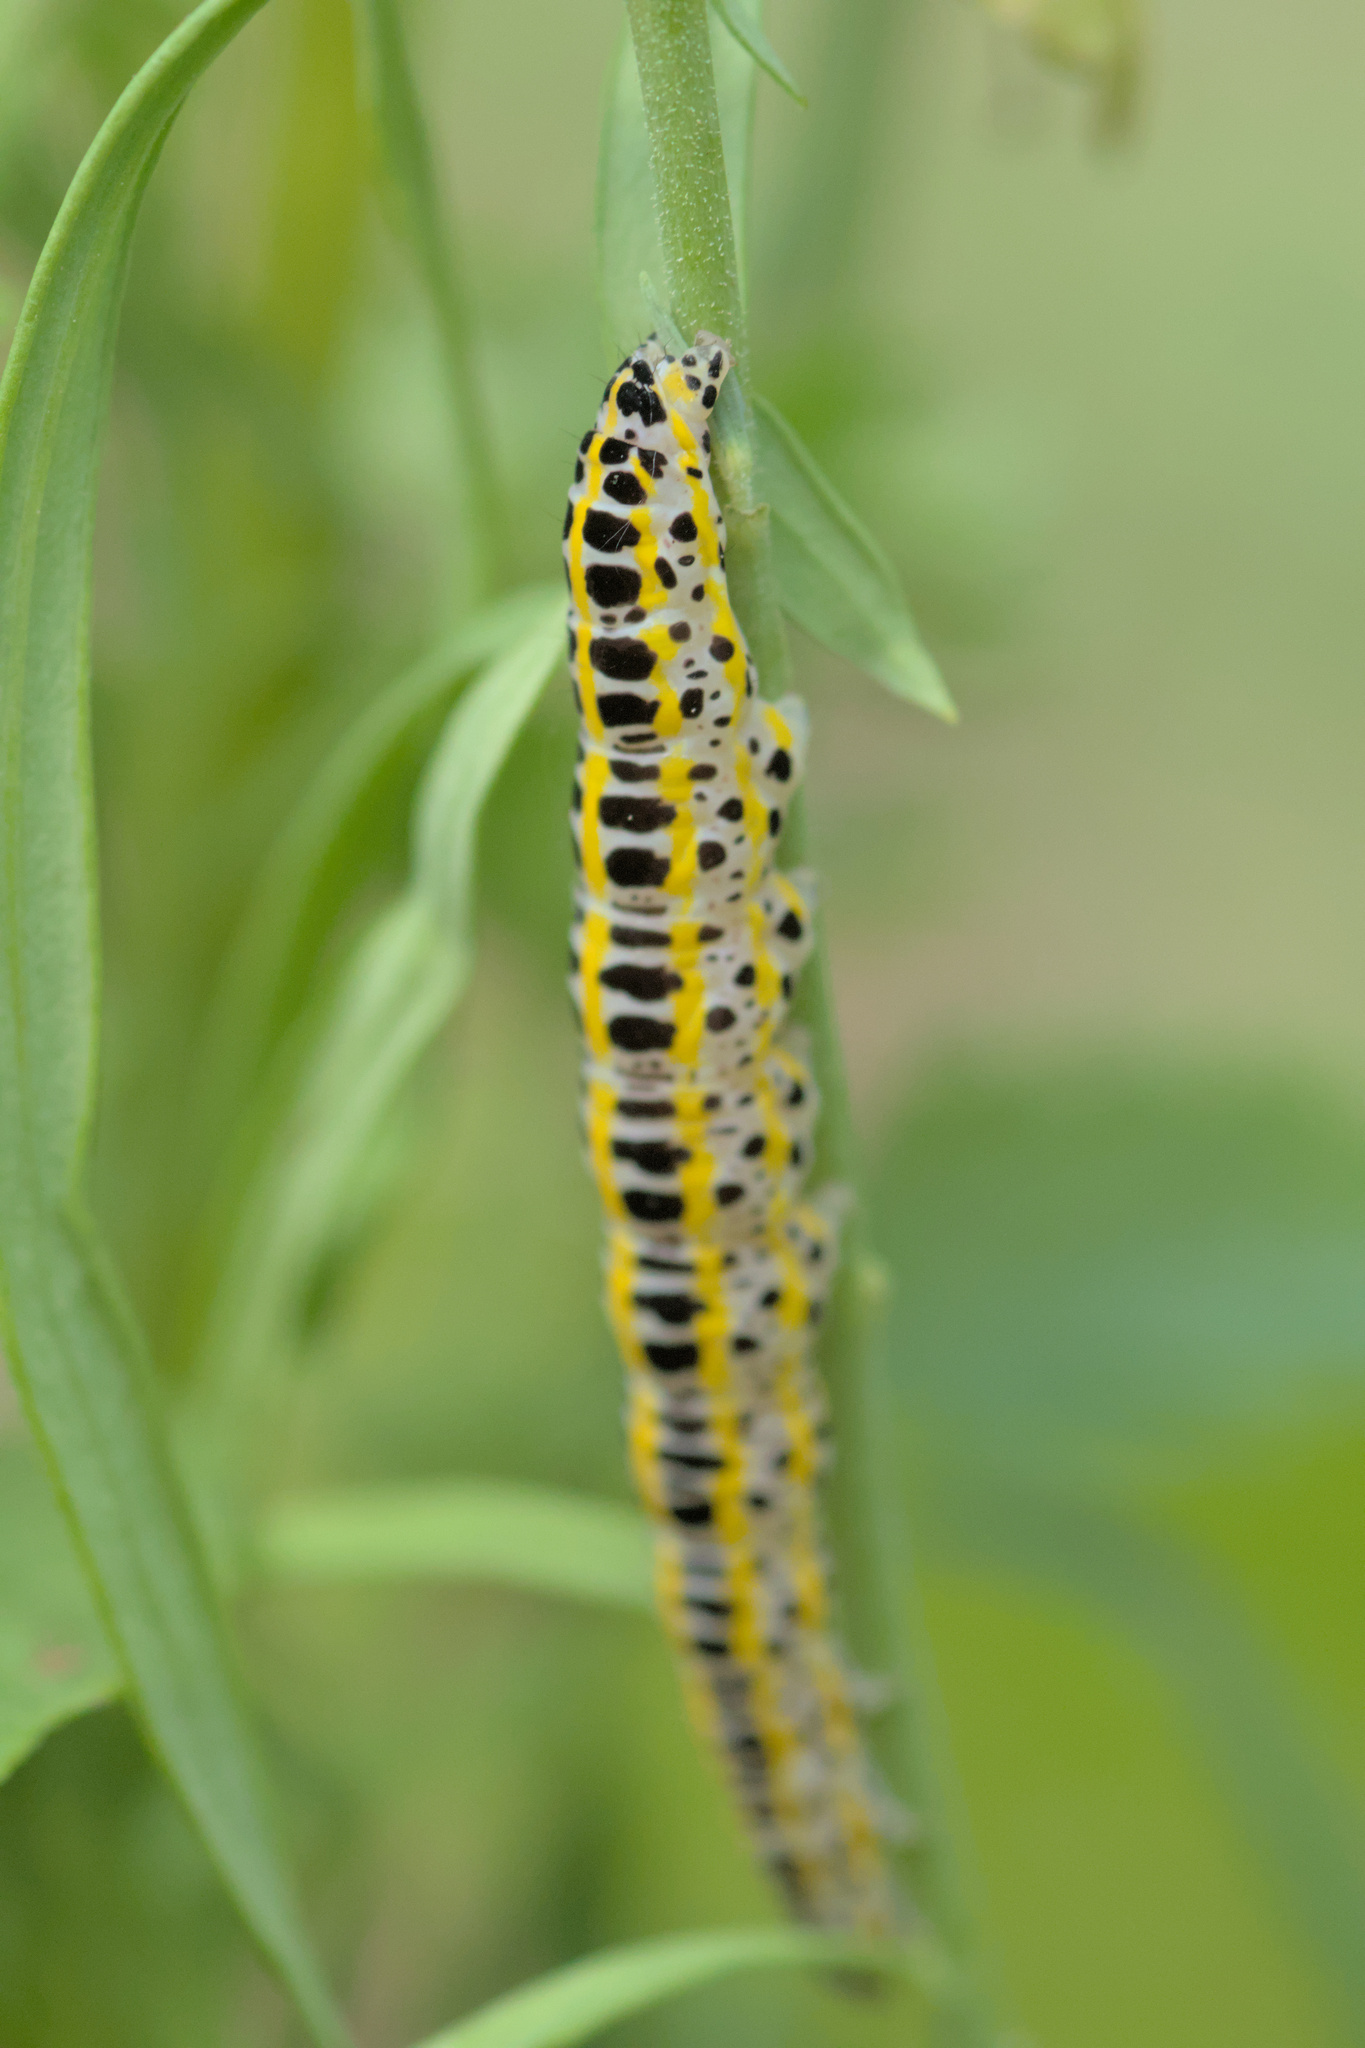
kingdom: Animalia
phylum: Arthropoda
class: Insecta
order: Lepidoptera
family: Noctuidae
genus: Calophasia
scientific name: Calophasia lunula
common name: Toadflax brocade
